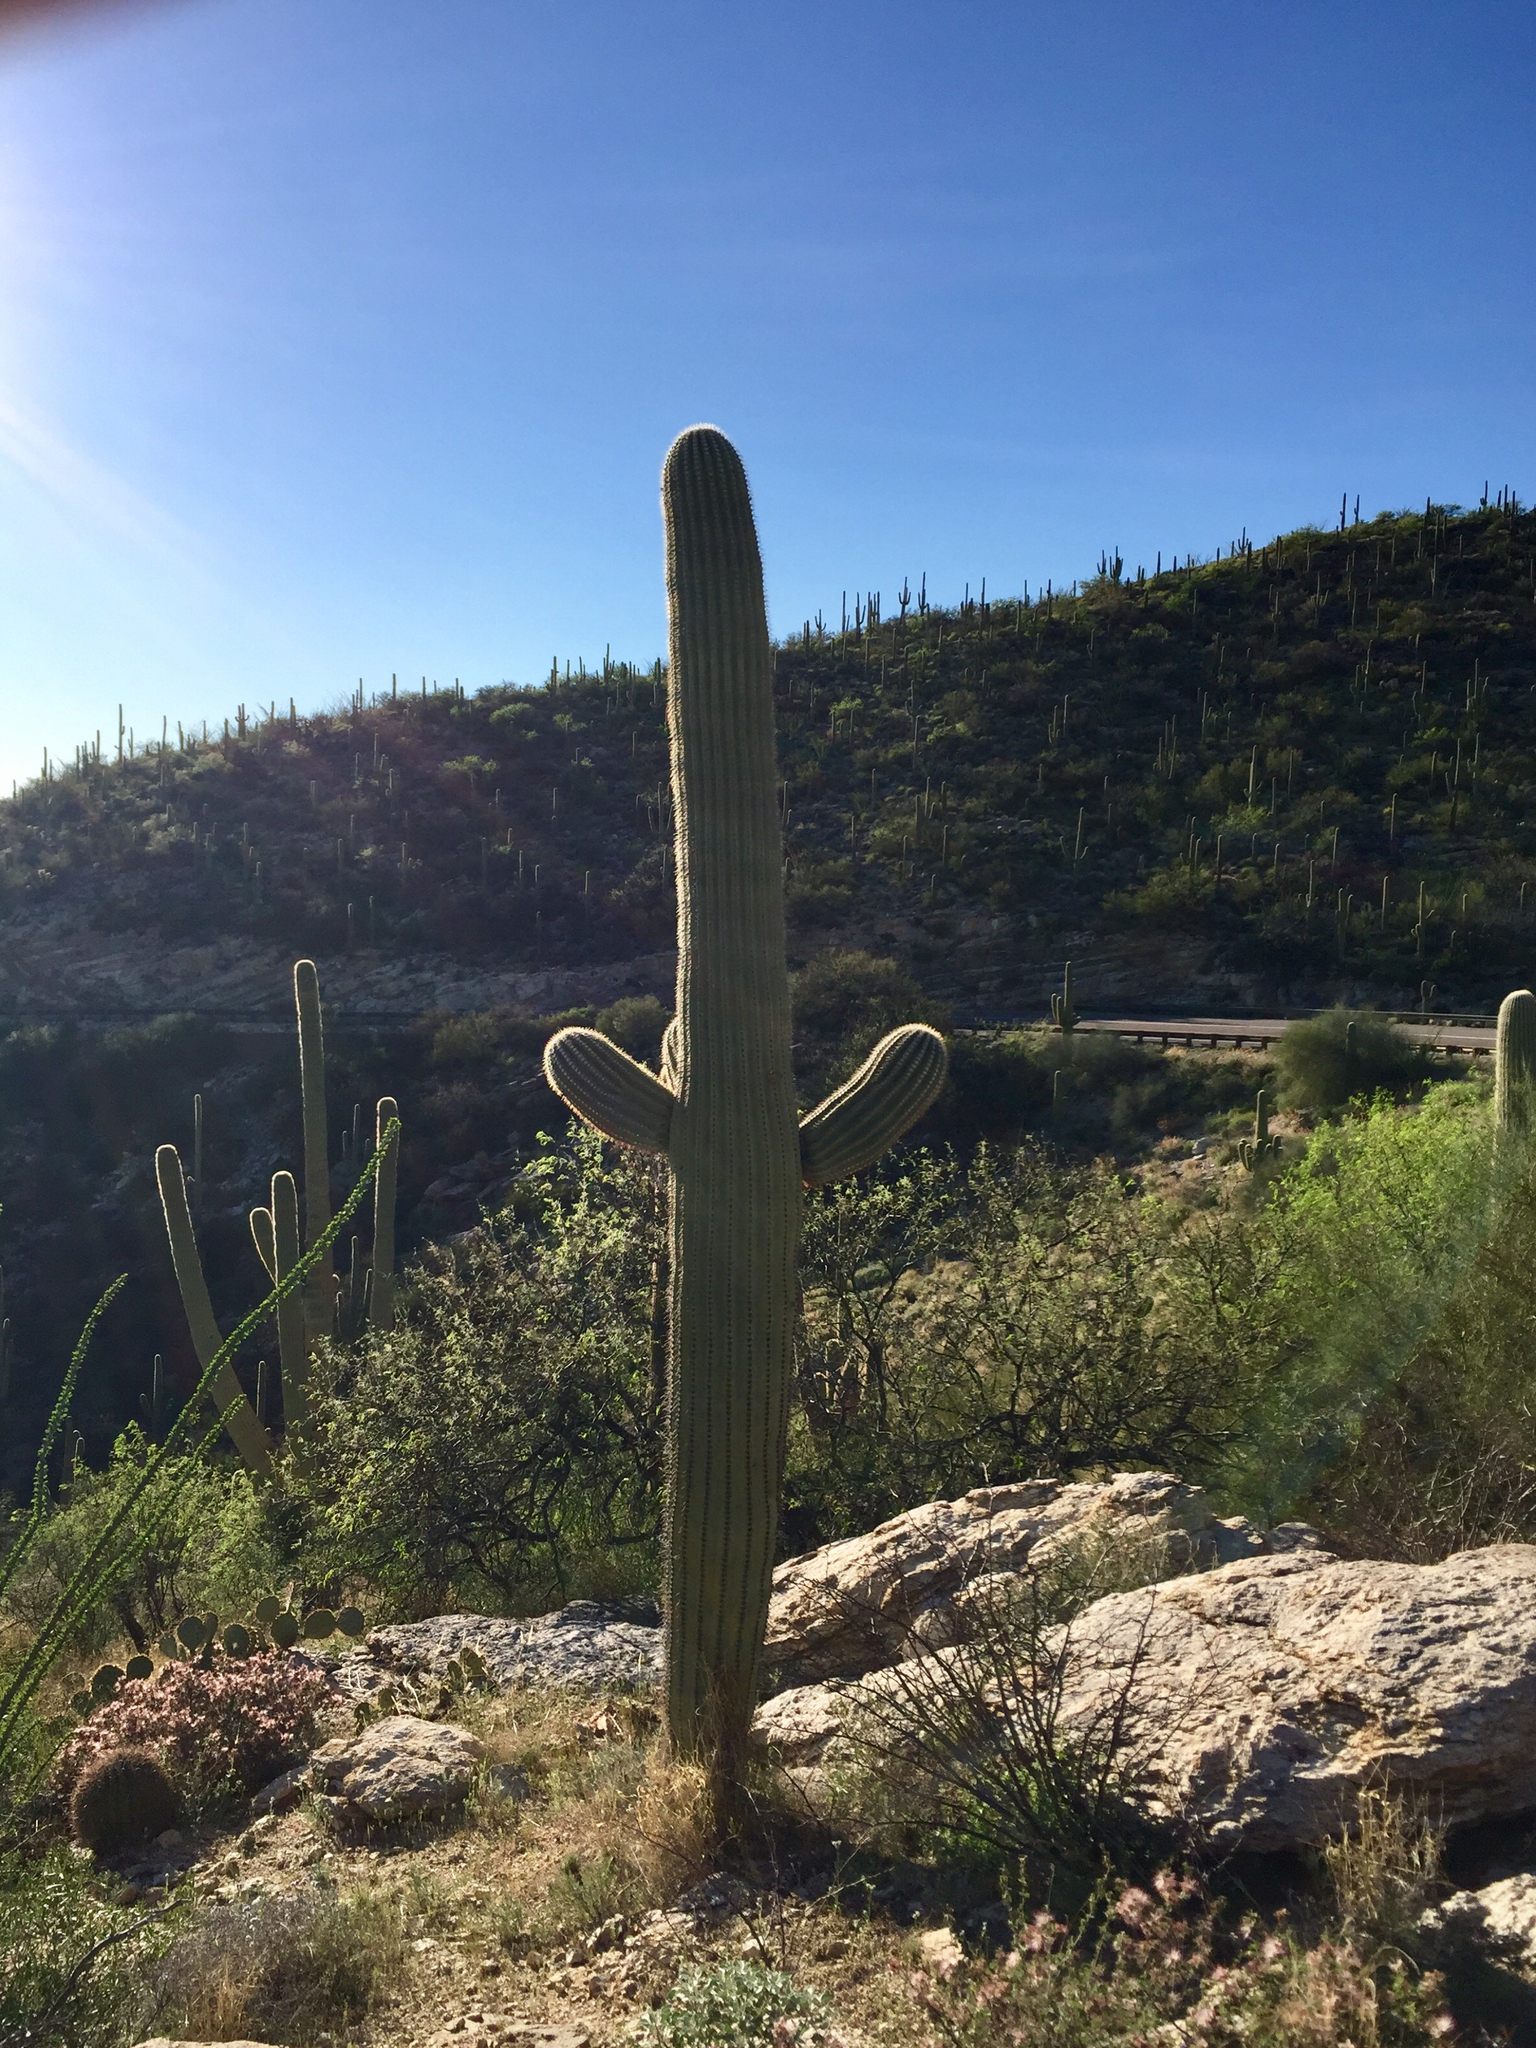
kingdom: Plantae
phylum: Tracheophyta
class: Magnoliopsida
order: Caryophyllales
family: Cactaceae
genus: Carnegiea
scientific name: Carnegiea gigantea
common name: Saguaro
